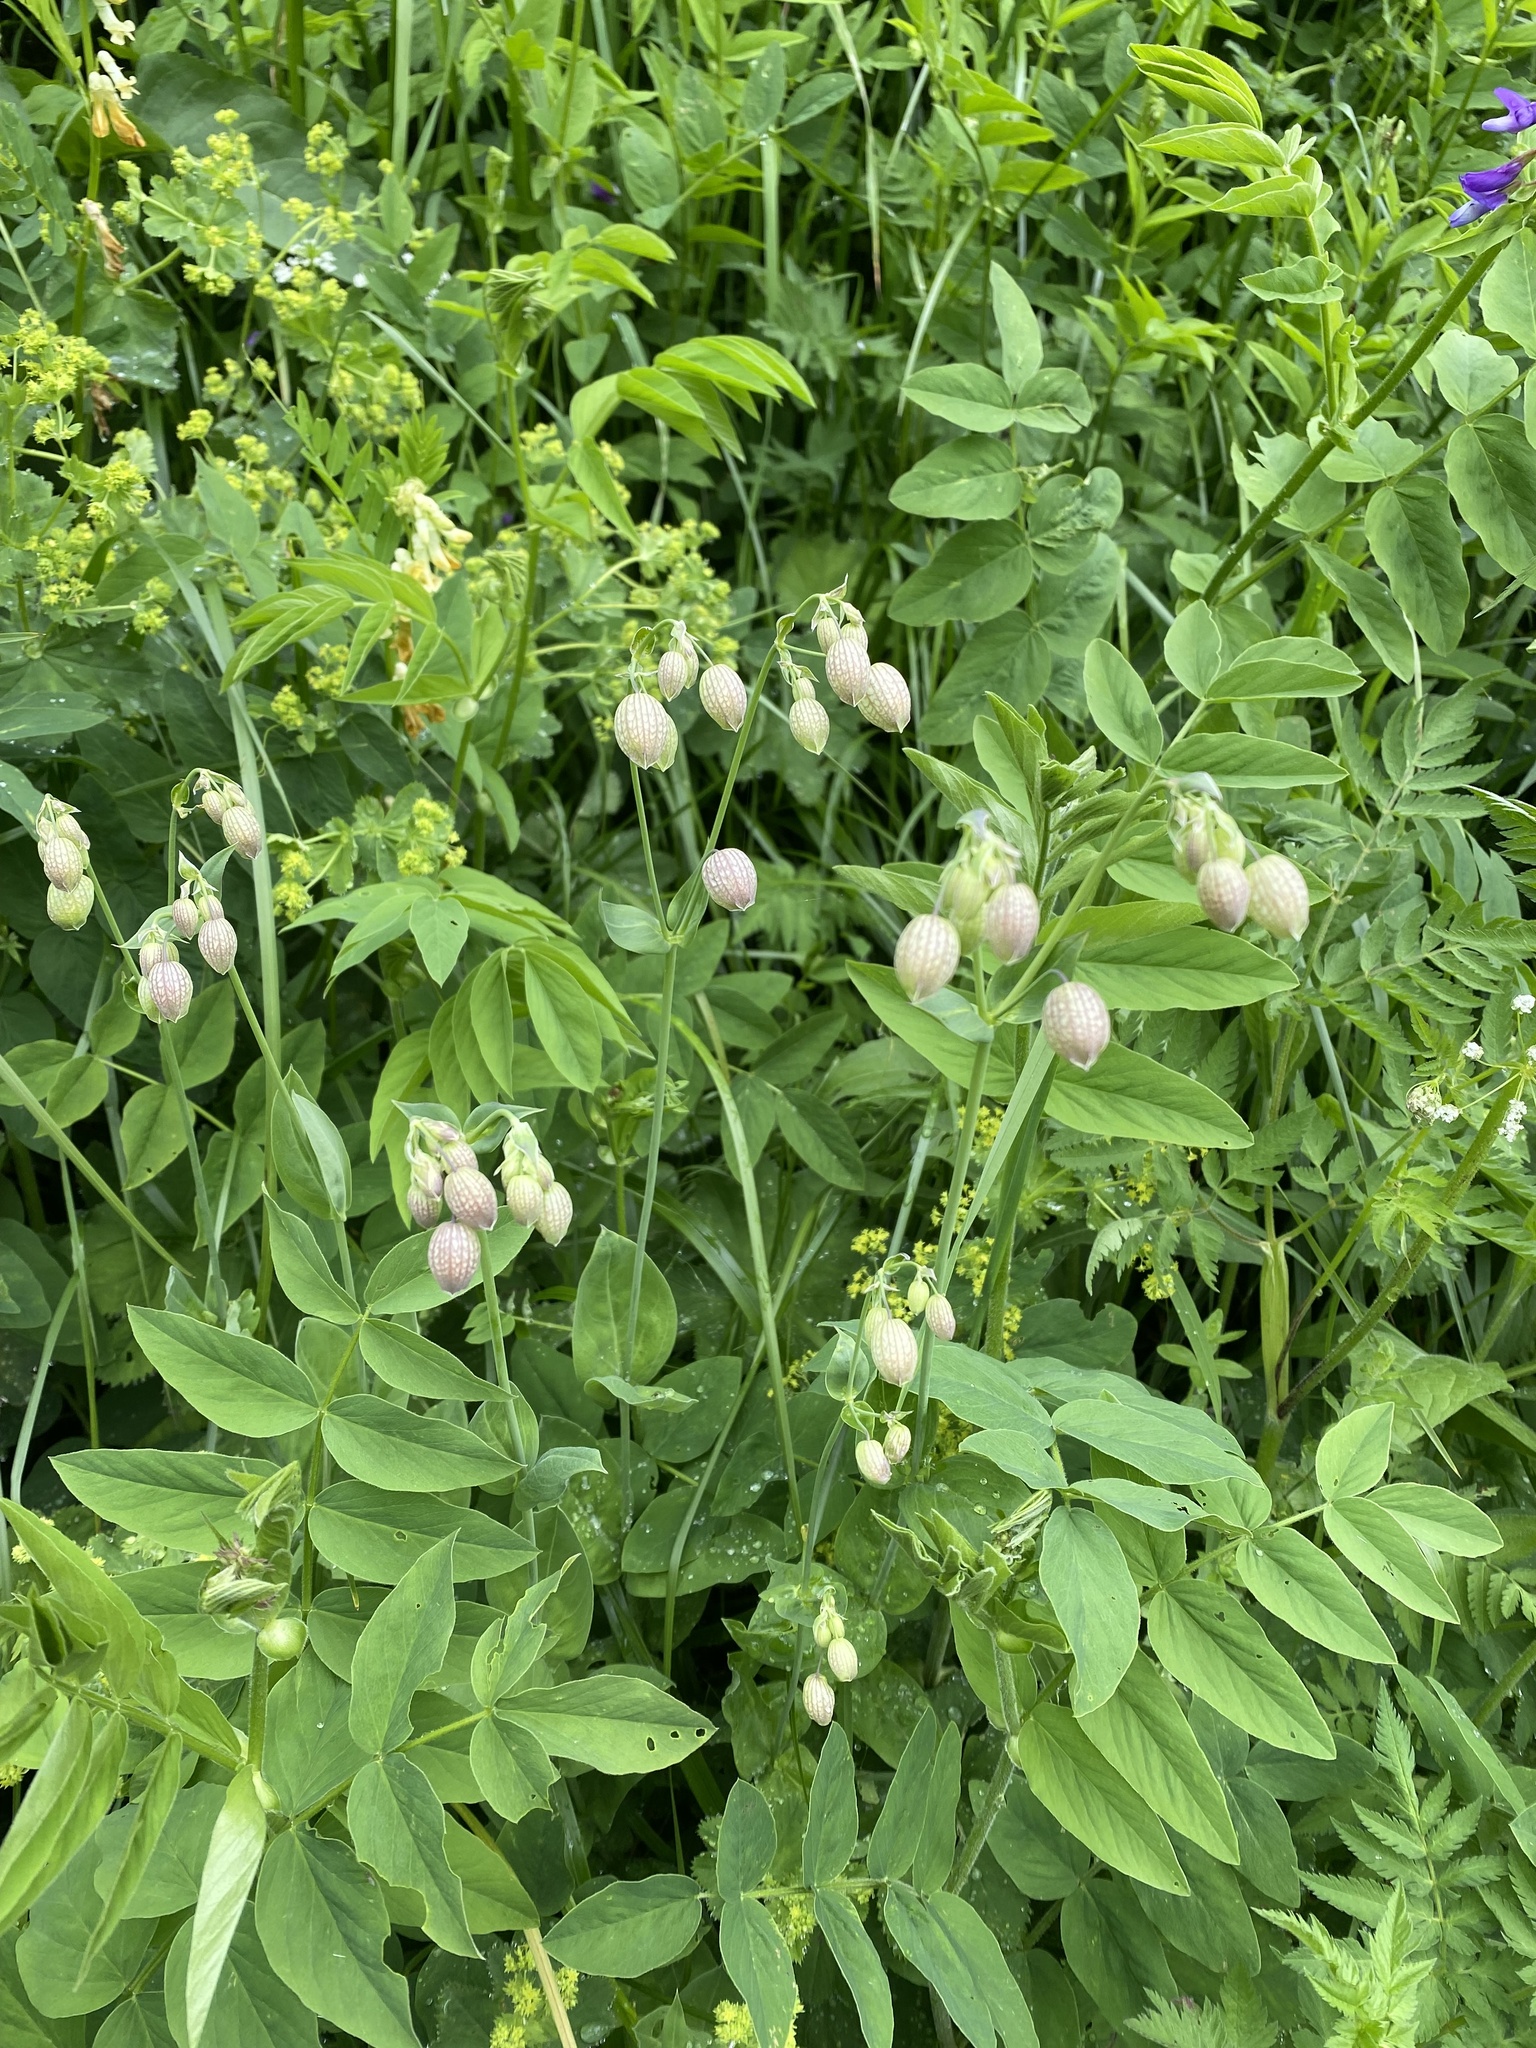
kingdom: Plantae
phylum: Tracheophyta
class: Magnoliopsida
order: Caryophyllales
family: Caryophyllaceae
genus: Silene
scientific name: Silene vulgaris
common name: Bladder campion
